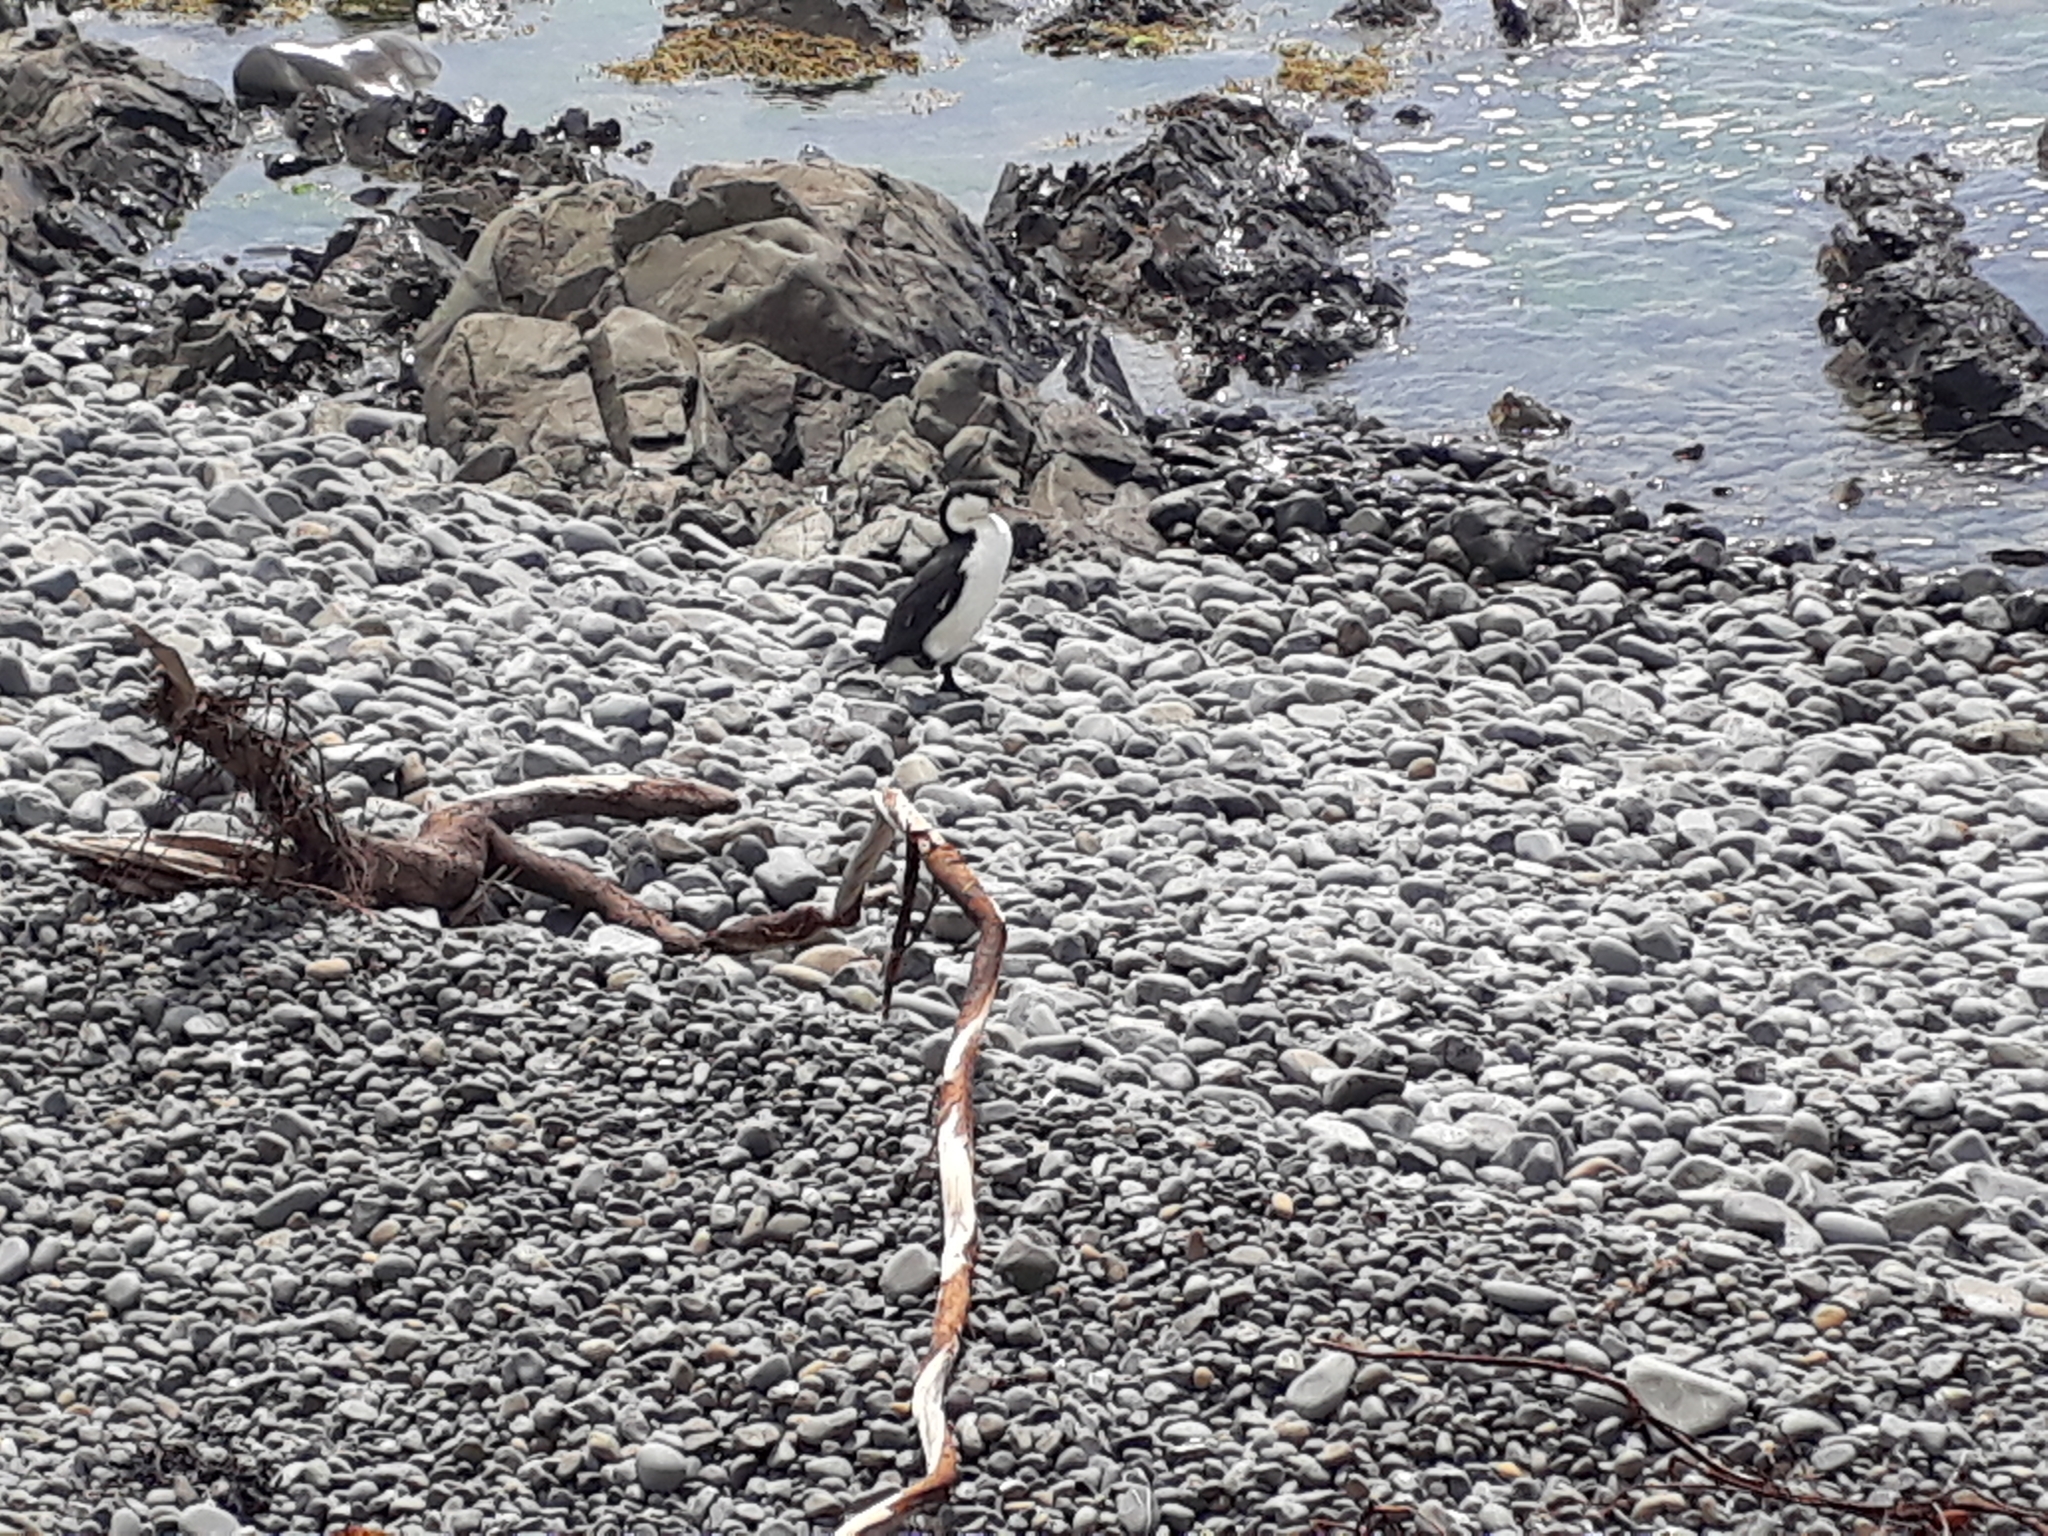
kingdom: Animalia
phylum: Chordata
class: Aves
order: Suliformes
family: Phalacrocoracidae
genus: Phalacrocorax
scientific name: Phalacrocorax varius
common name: Pied cormorant
